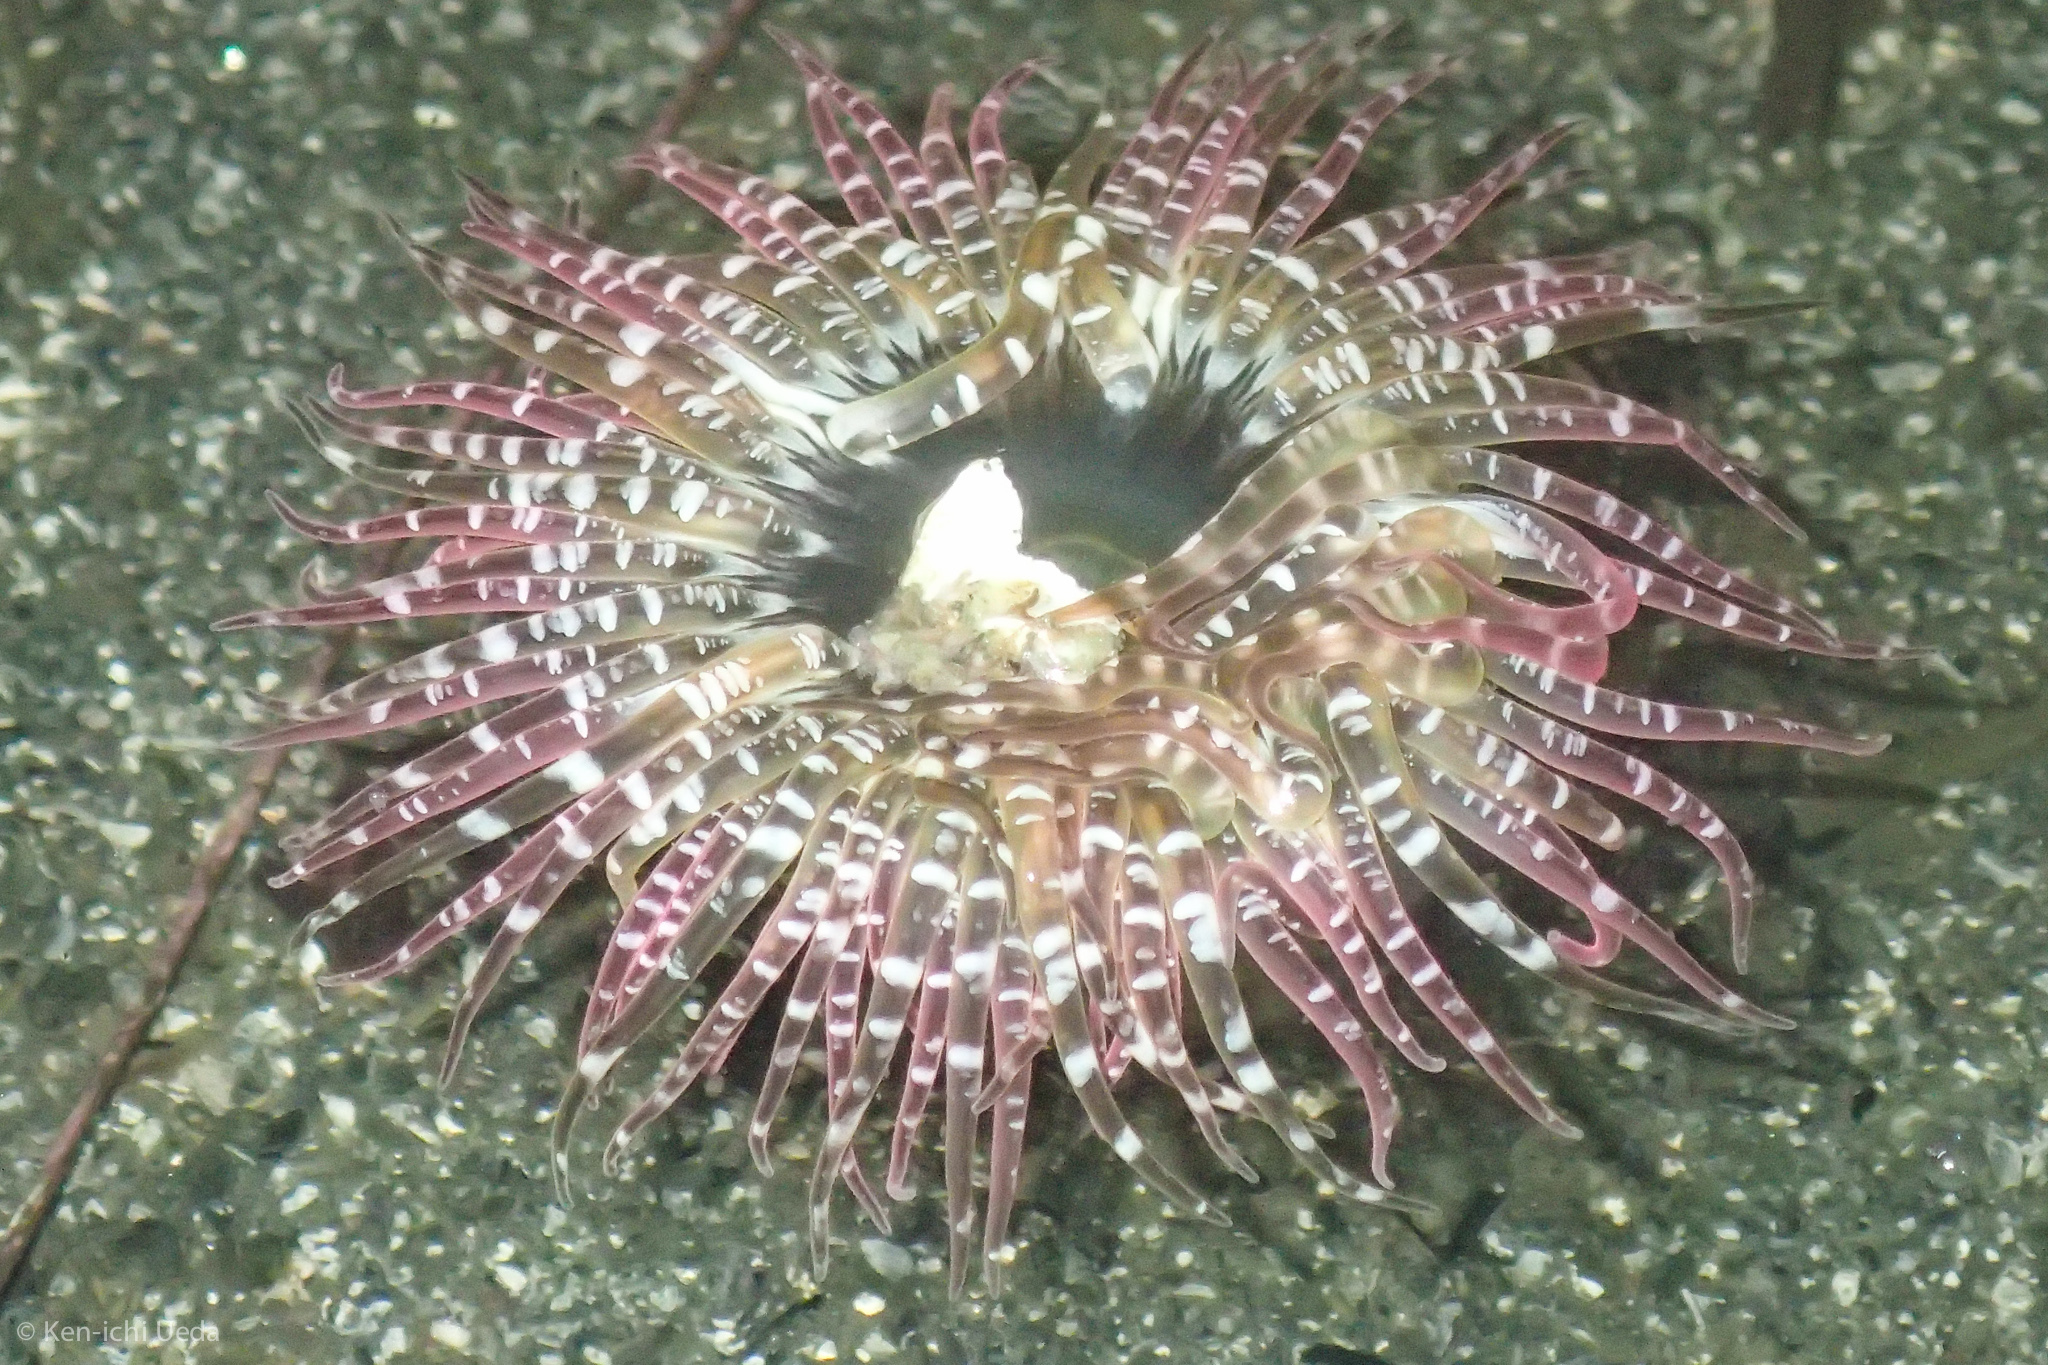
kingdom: Animalia
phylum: Cnidaria
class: Anthozoa
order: Actiniaria
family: Actiniidae
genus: Anthopleura
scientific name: Anthopleura artemisia
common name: Buried sea anemone
